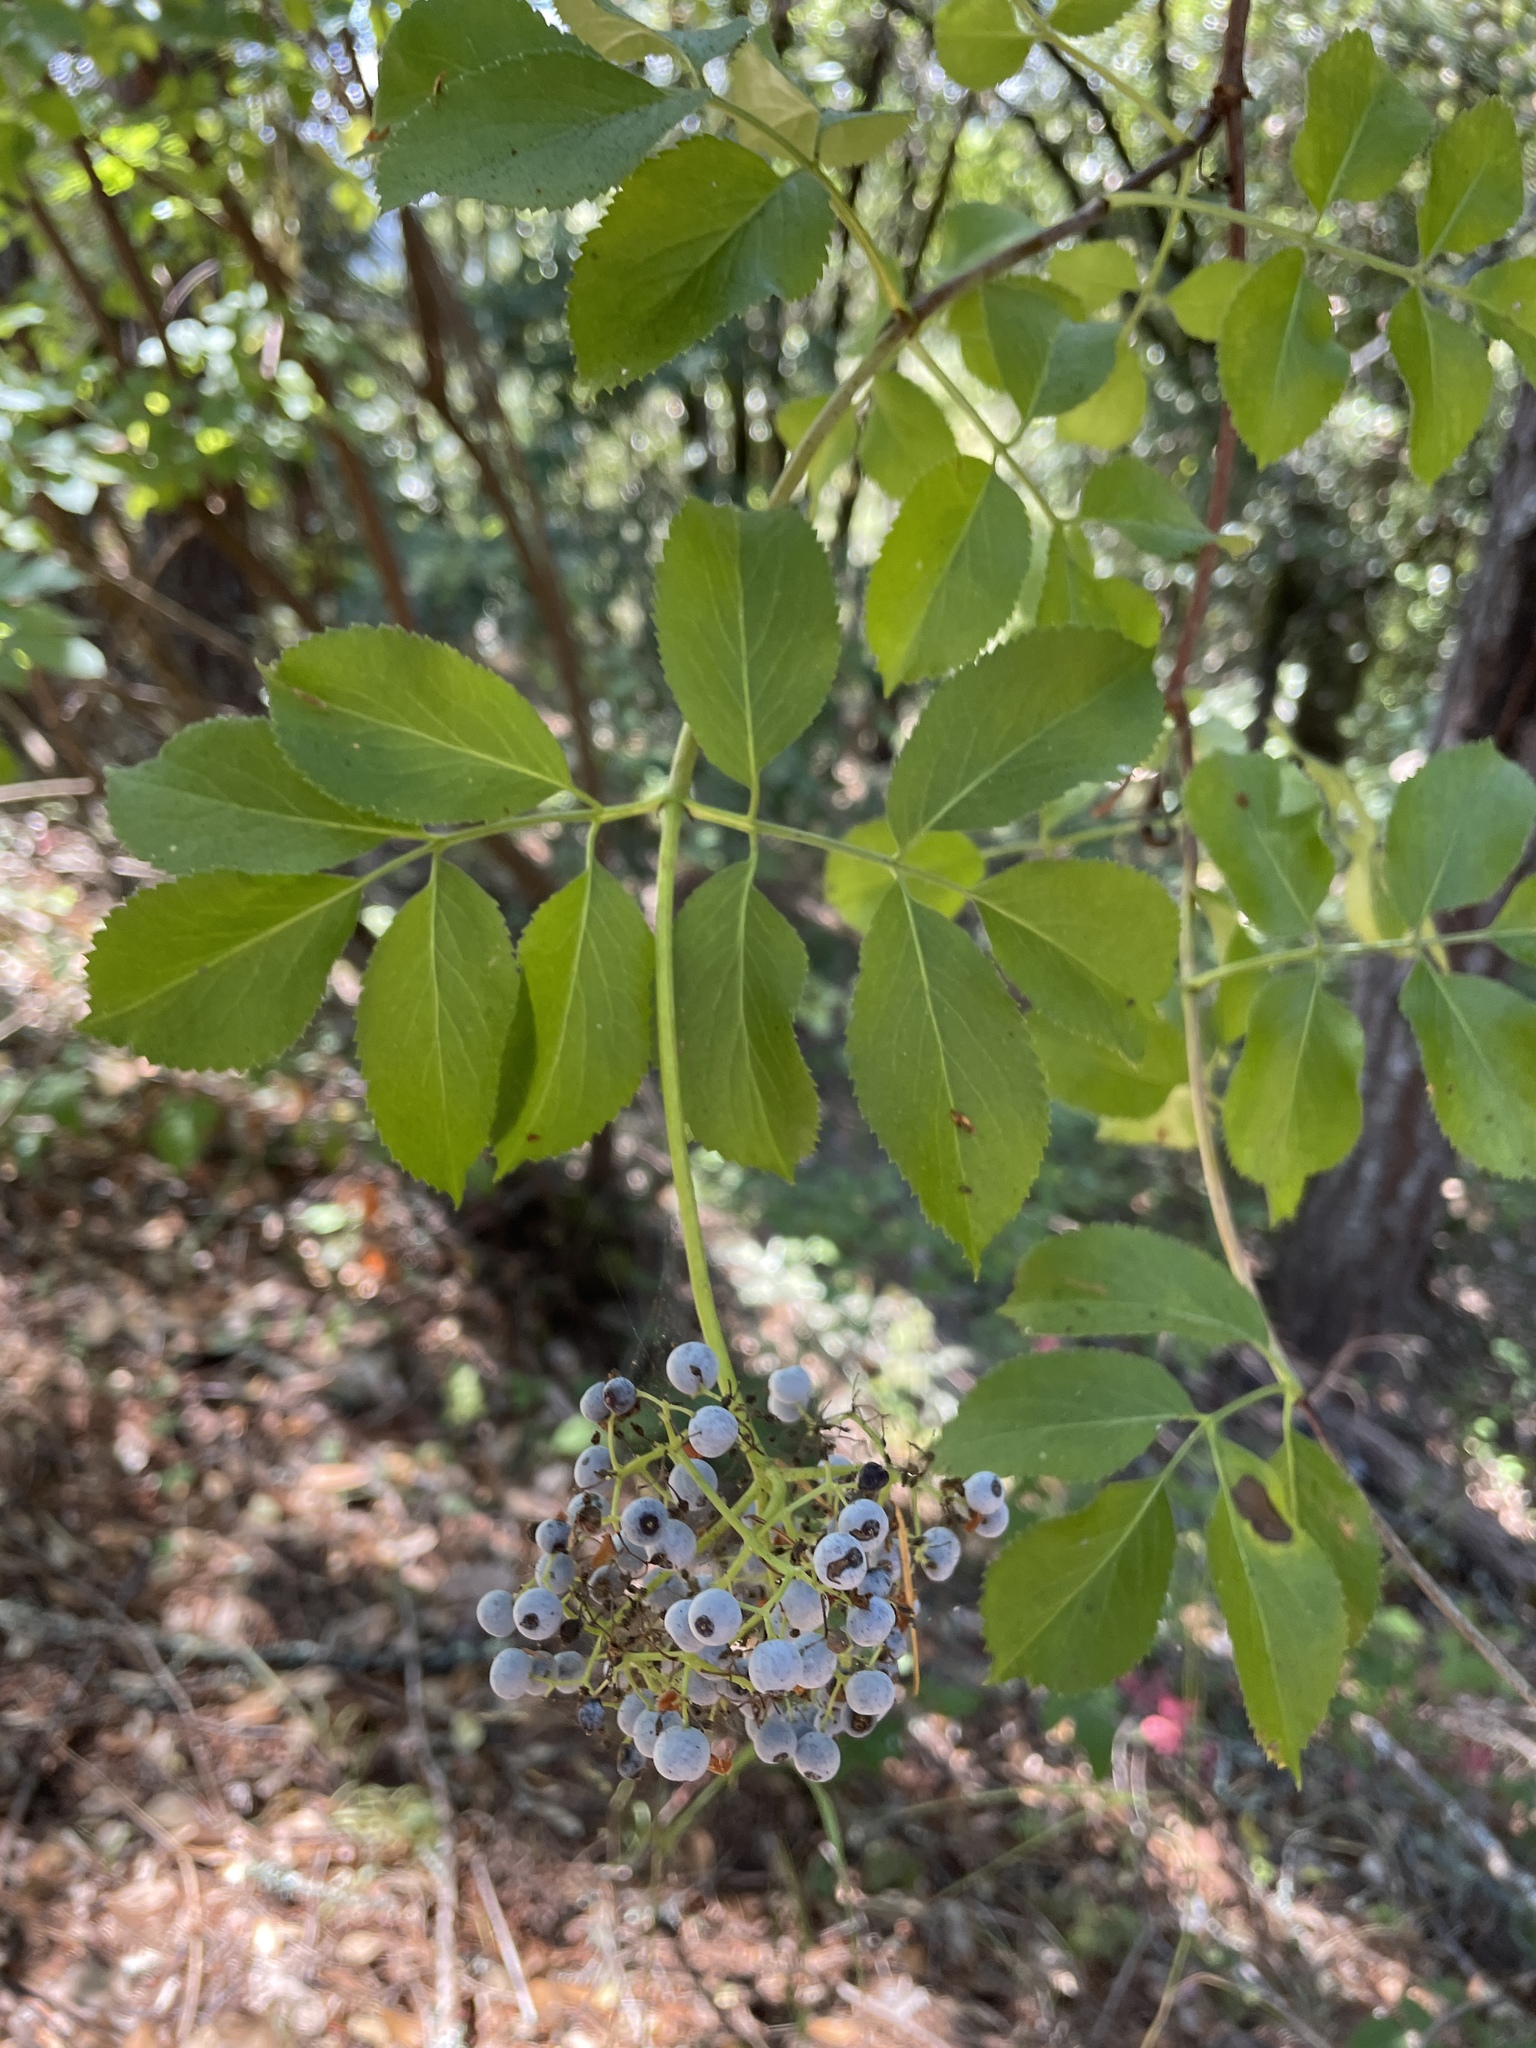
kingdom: Plantae
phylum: Tracheophyta
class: Magnoliopsida
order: Dipsacales
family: Viburnaceae
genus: Sambucus
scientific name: Sambucus cerulea
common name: Blue elder
